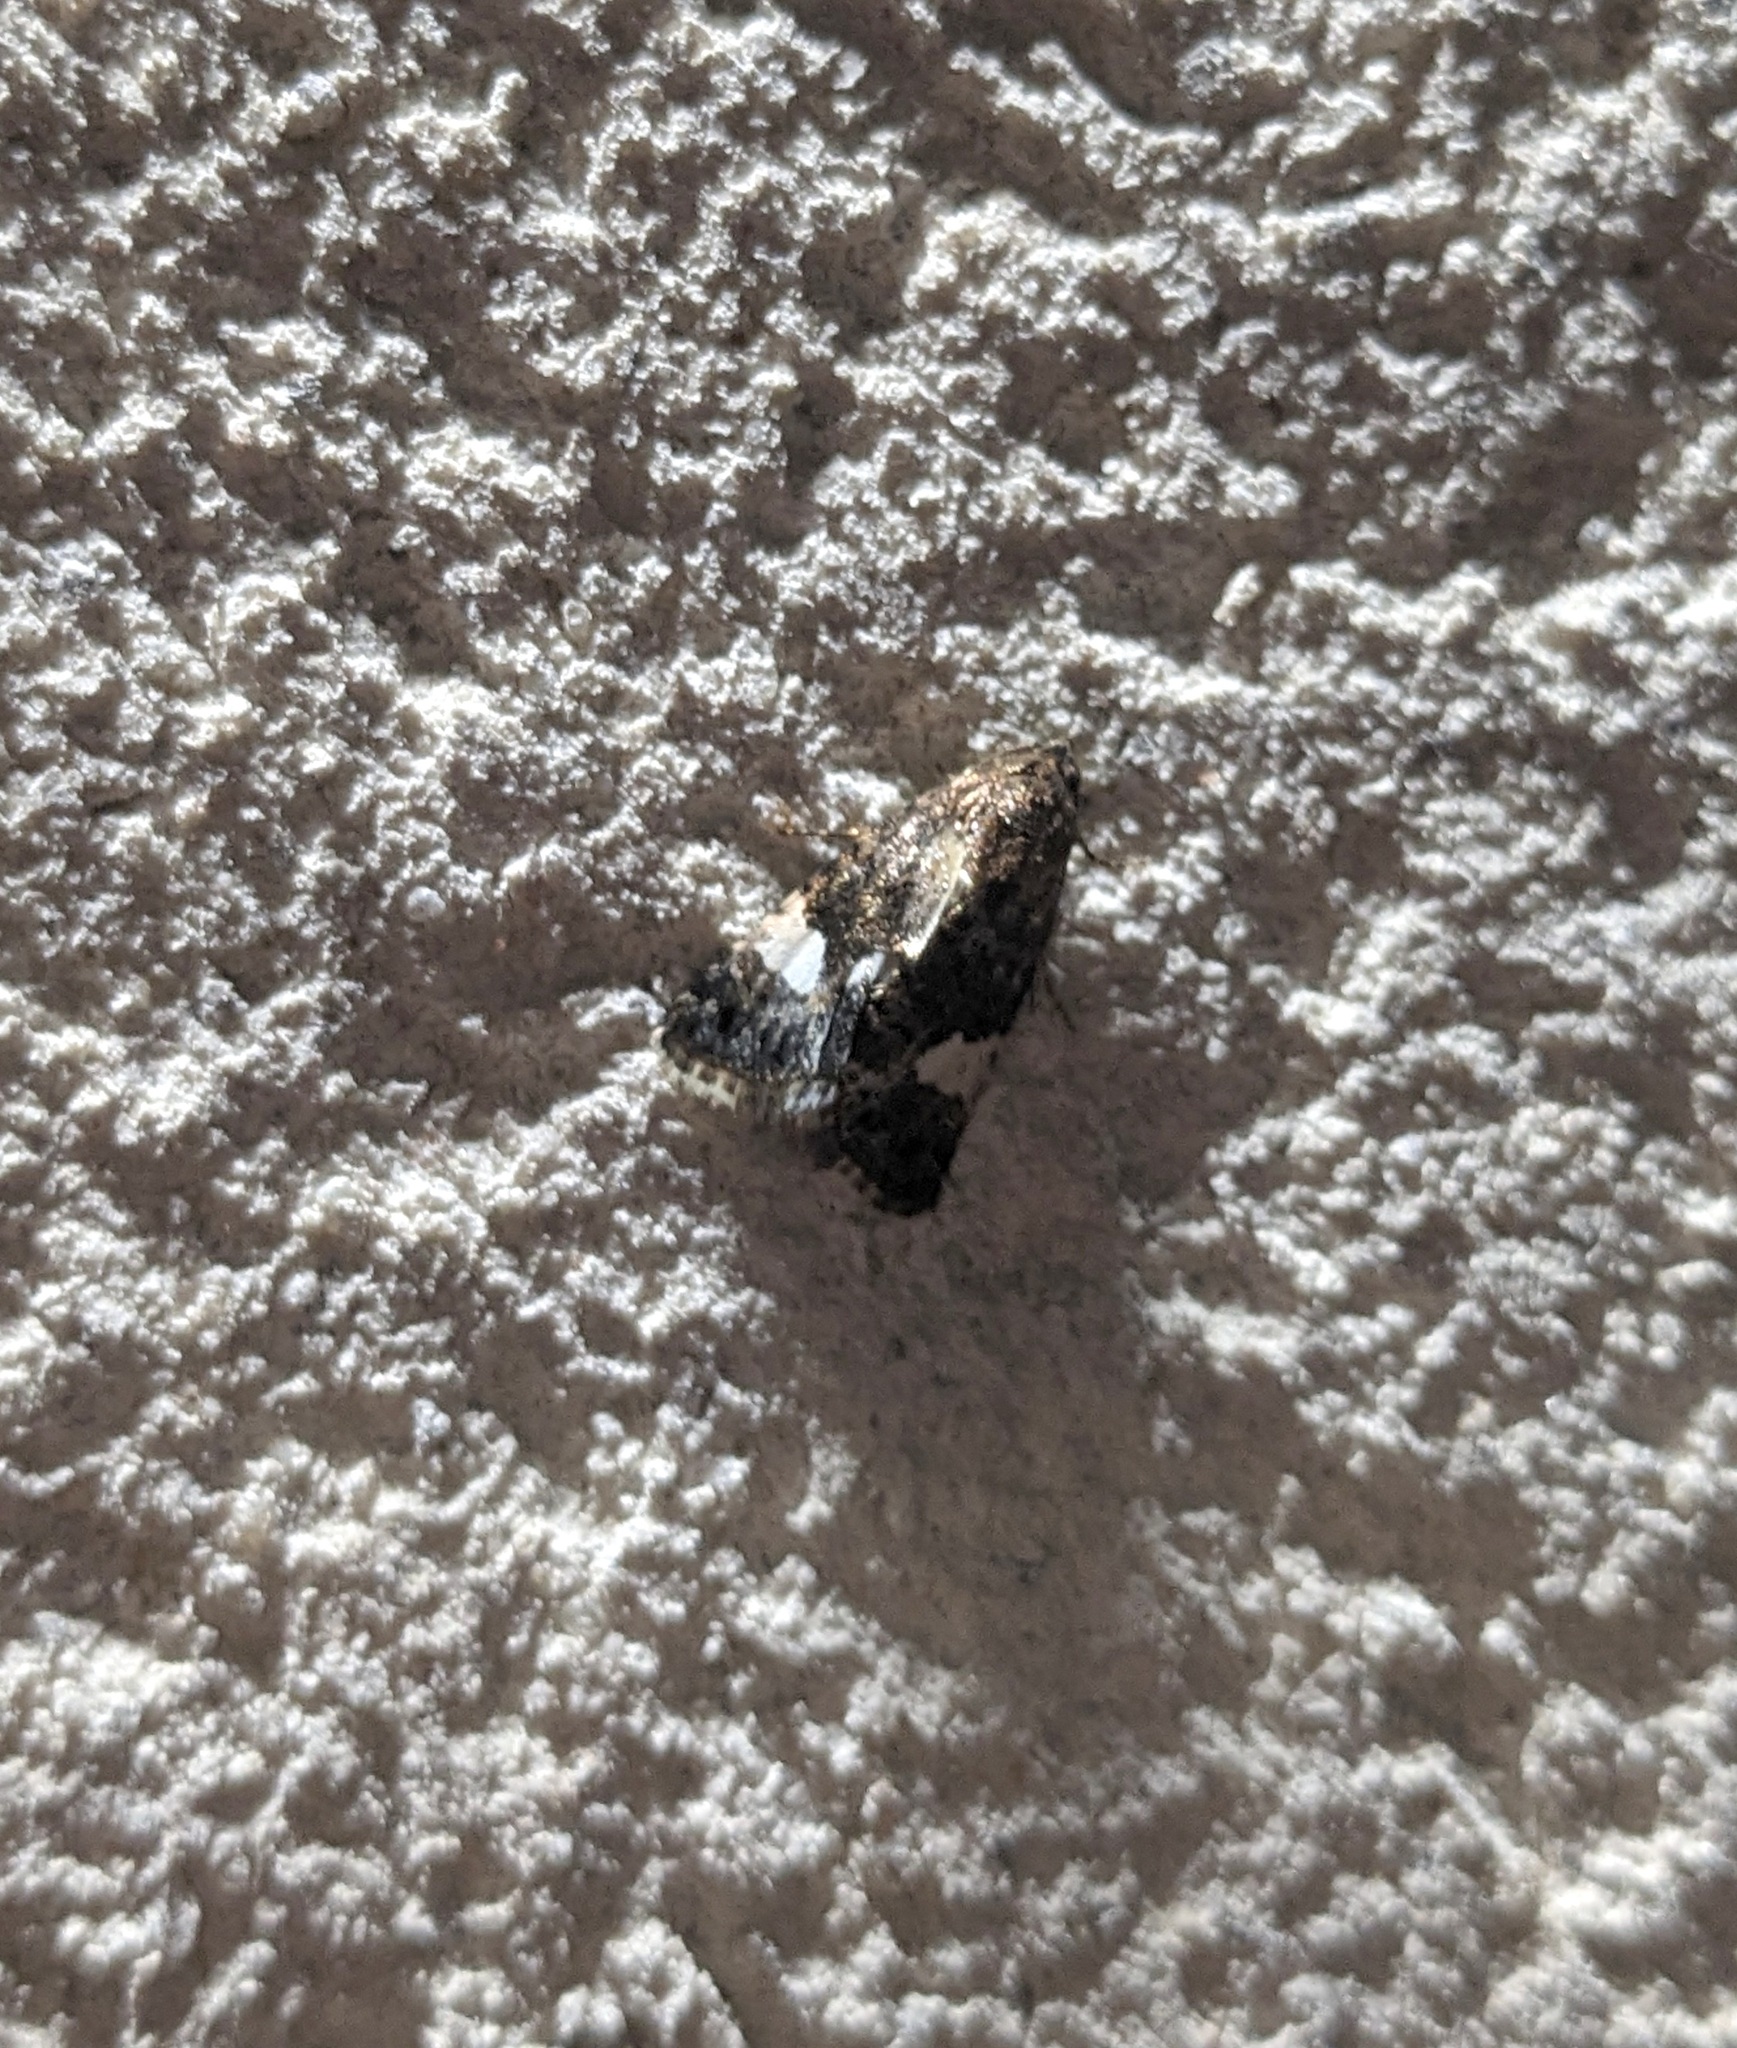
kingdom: Animalia
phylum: Arthropoda
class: Insecta
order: Lepidoptera
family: Erebidae
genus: Tyta
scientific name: Tyta luctuosa
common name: Four-spotted
